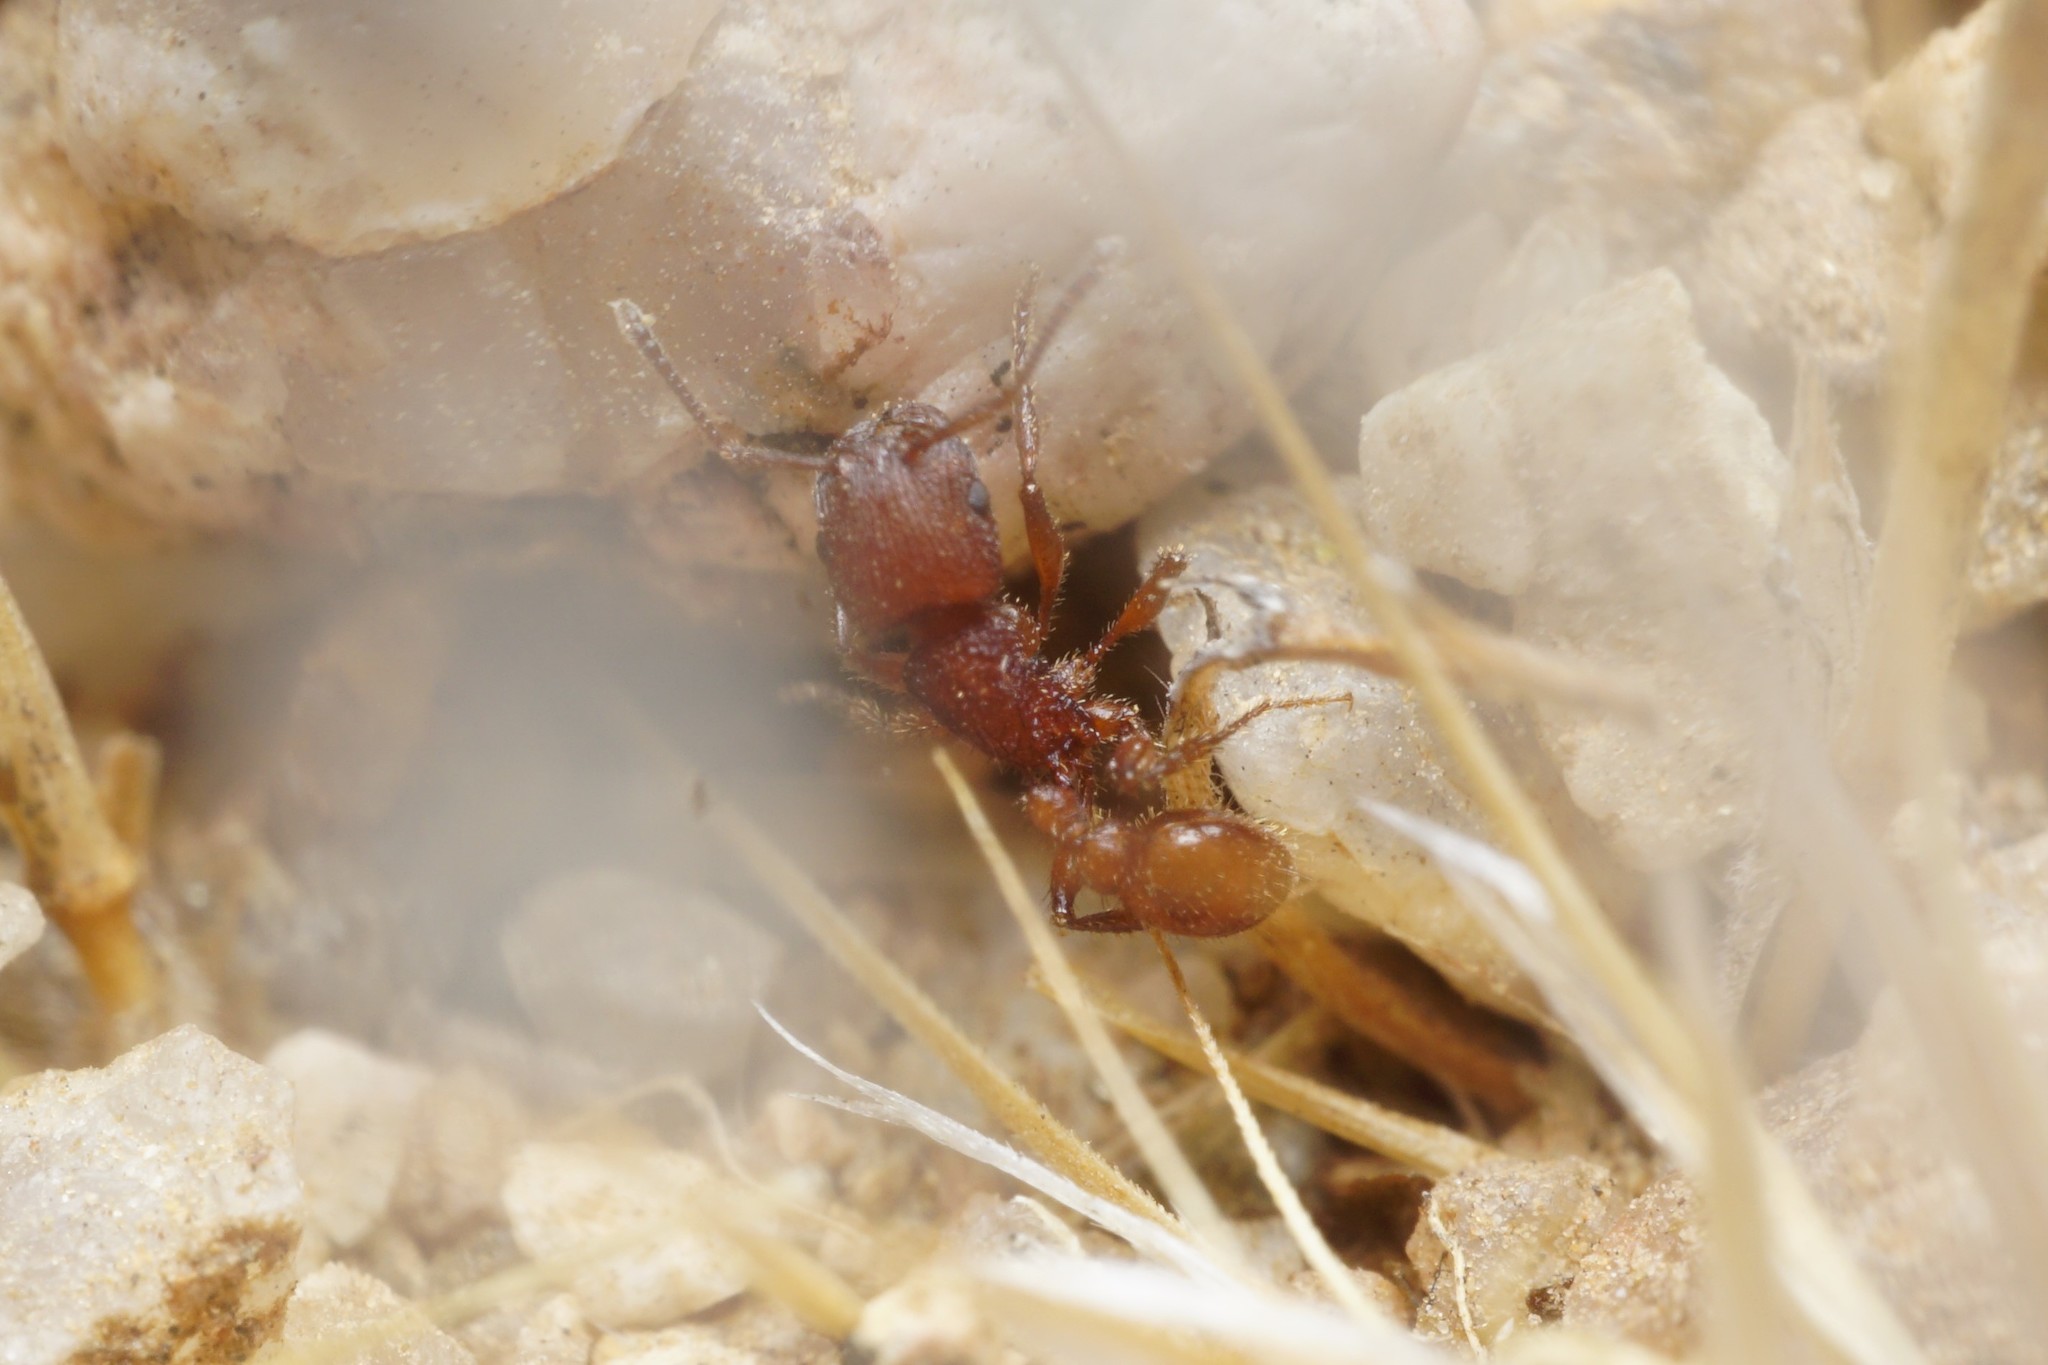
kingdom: Animalia
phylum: Arthropoda
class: Insecta
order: Hymenoptera
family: Formicidae
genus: Pogonomyrmex
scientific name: Pogonomyrmex imberbiculus
